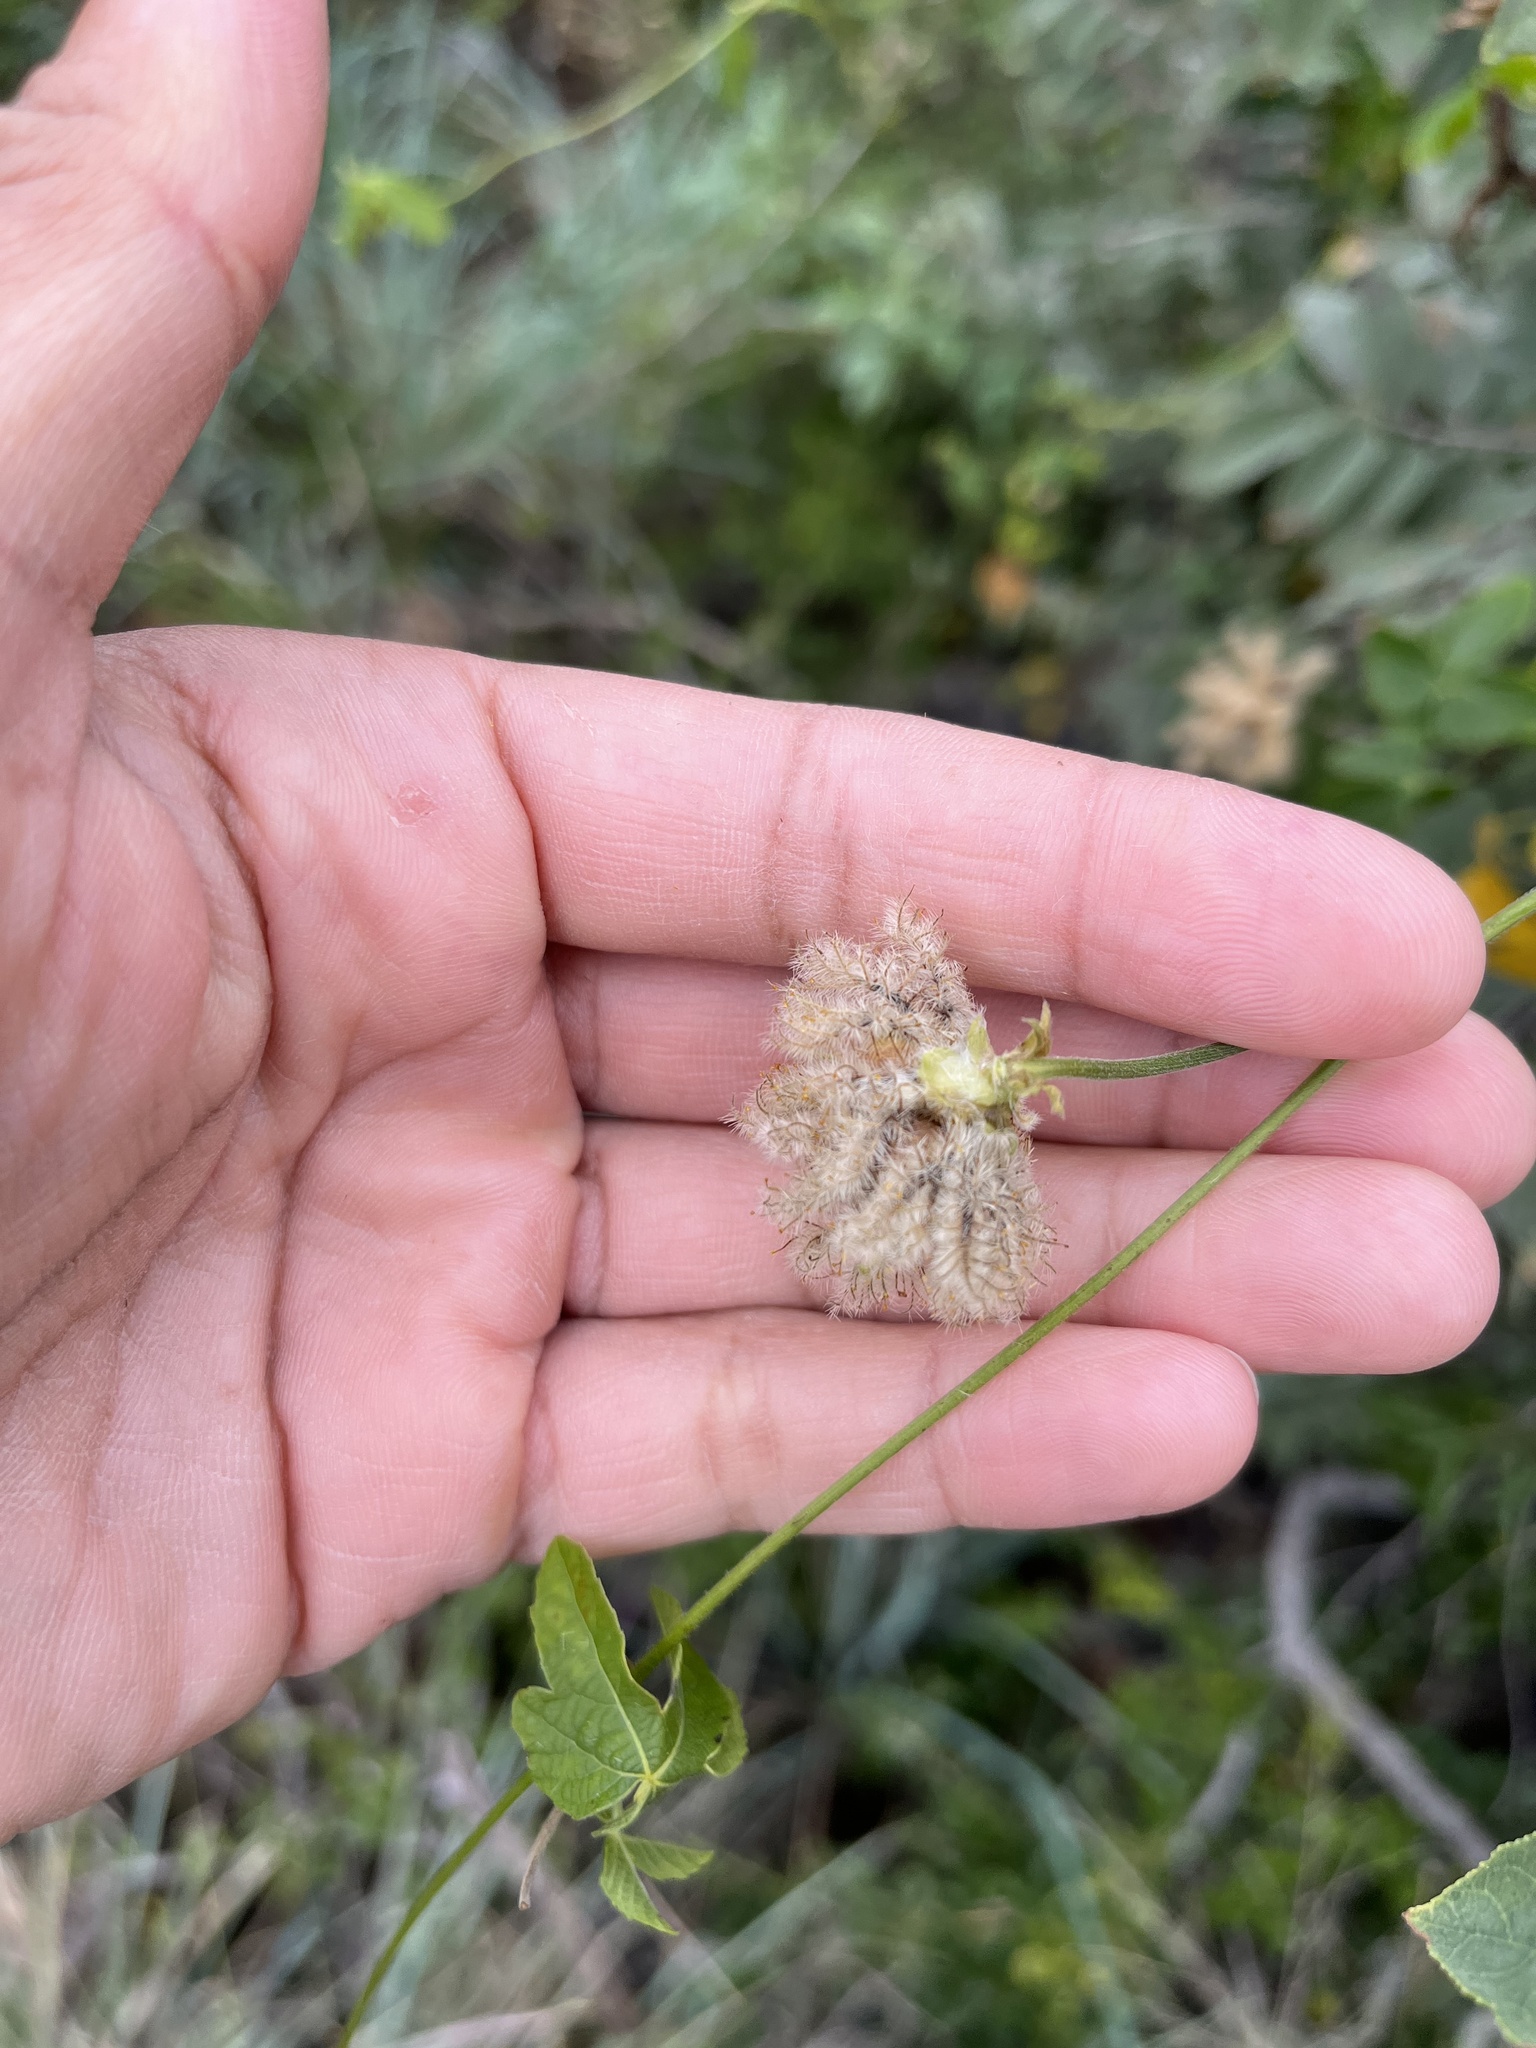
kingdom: Plantae
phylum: Tracheophyta
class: Magnoliopsida
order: Malpighiales
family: Euphorbiaceae
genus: Dalechampia
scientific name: Dalechampia capensis
